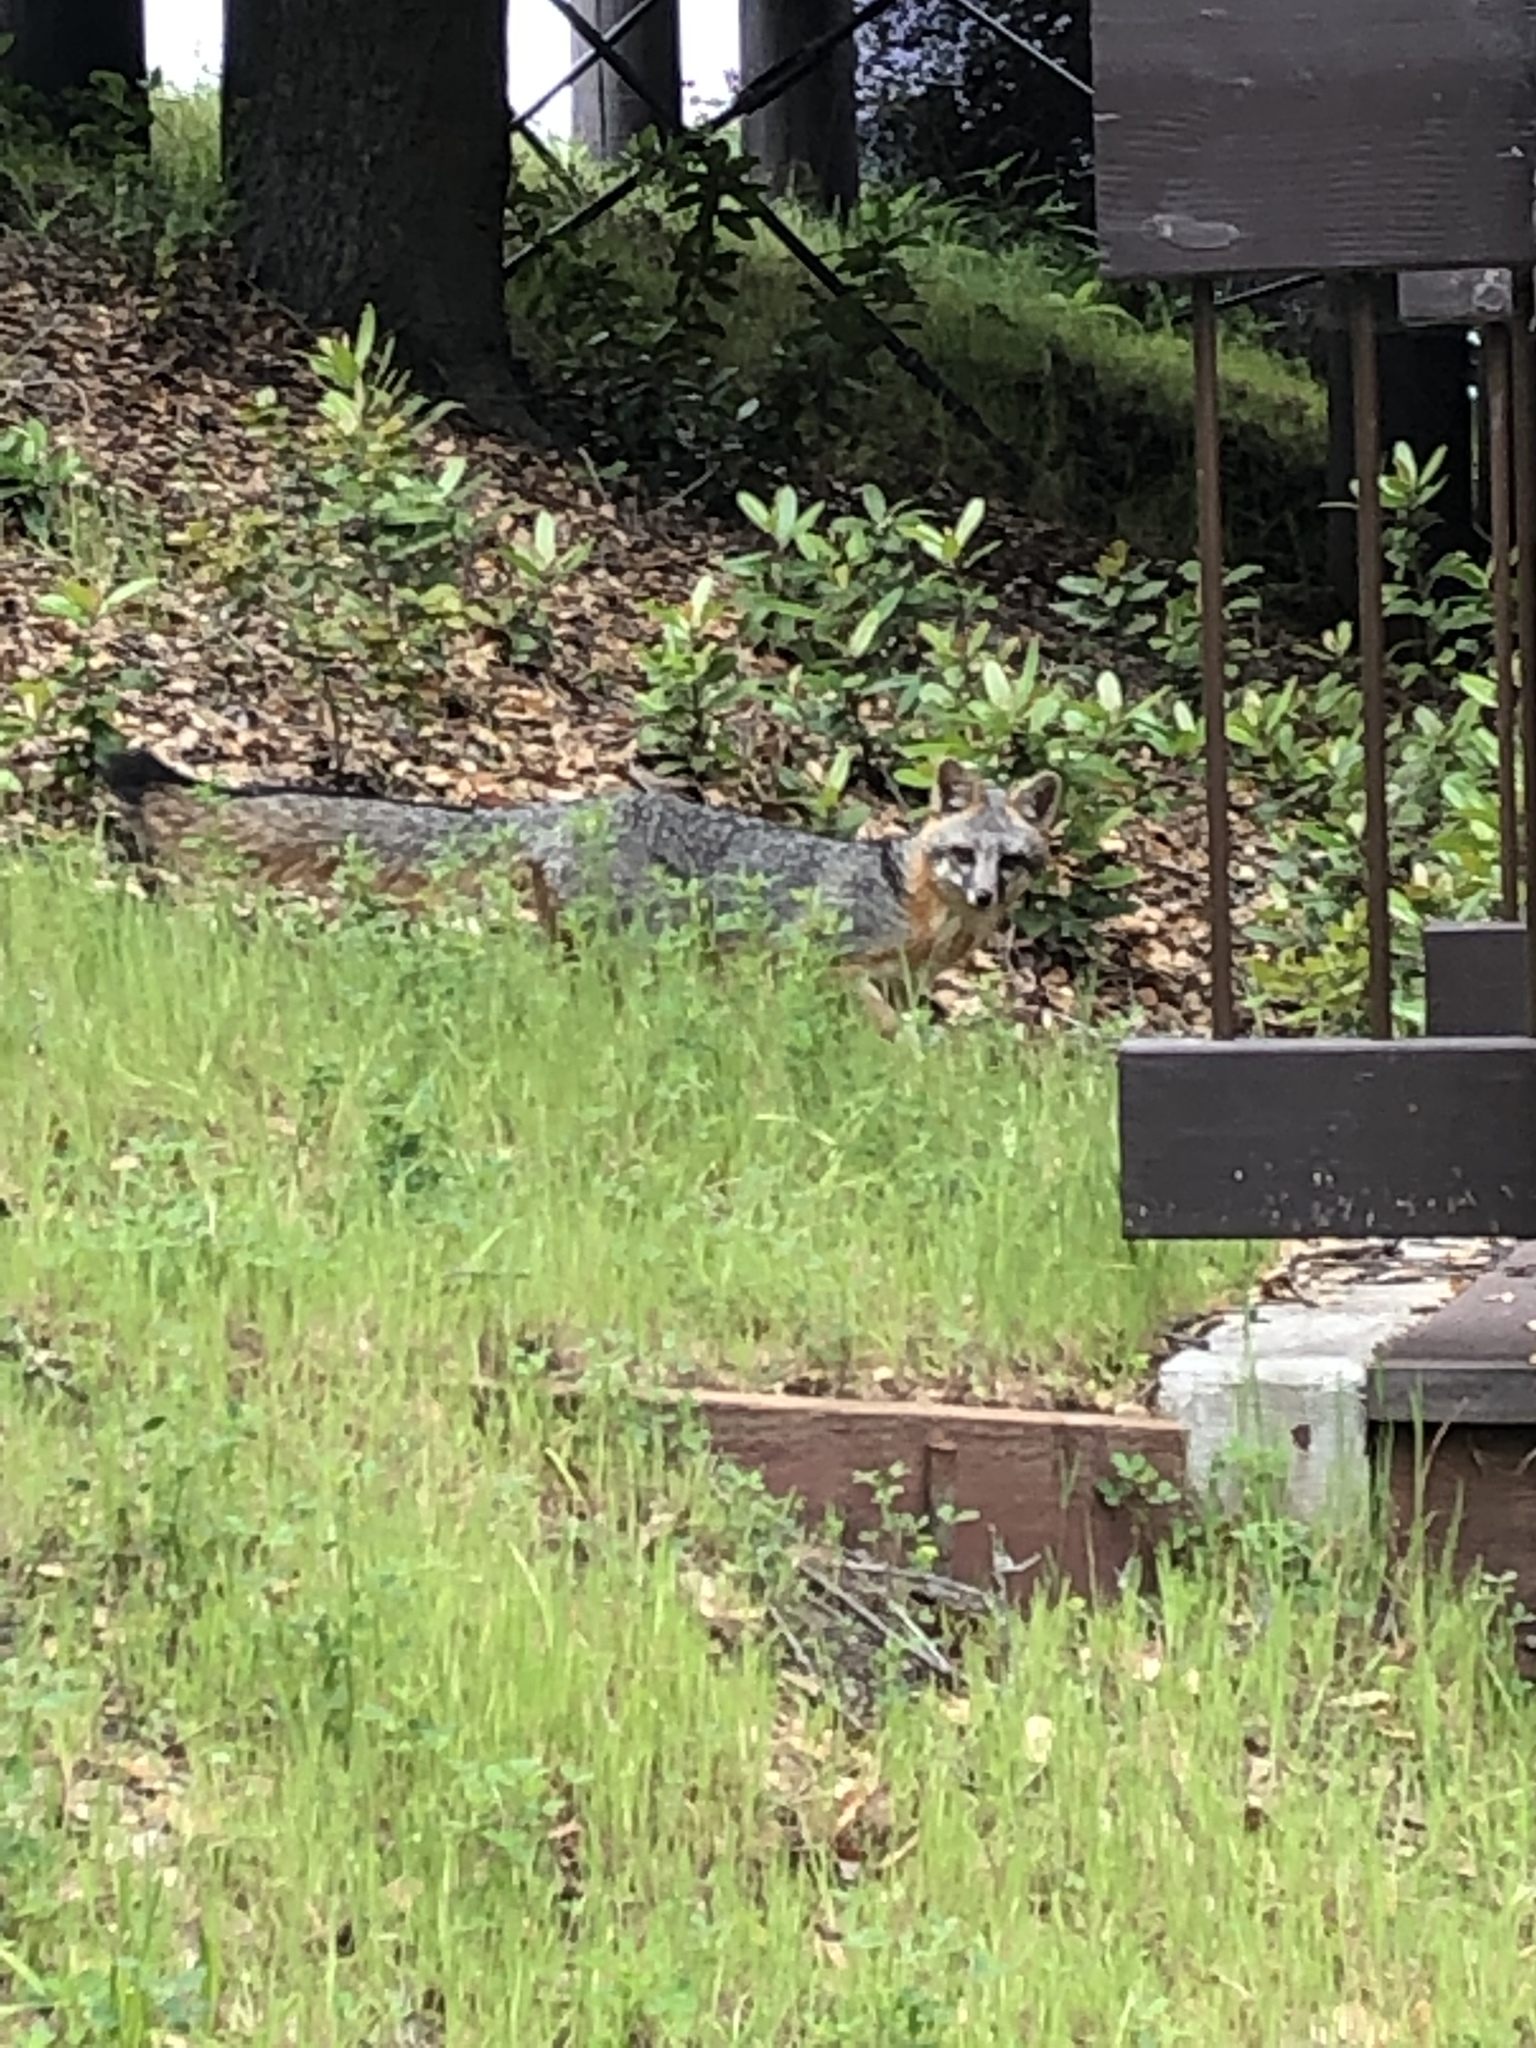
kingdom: Animalia
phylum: Chordata
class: Mammalia
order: Carnivora
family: Canidae
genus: Urocyon
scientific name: Urocyon cinereoargenteus
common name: Gray fox
